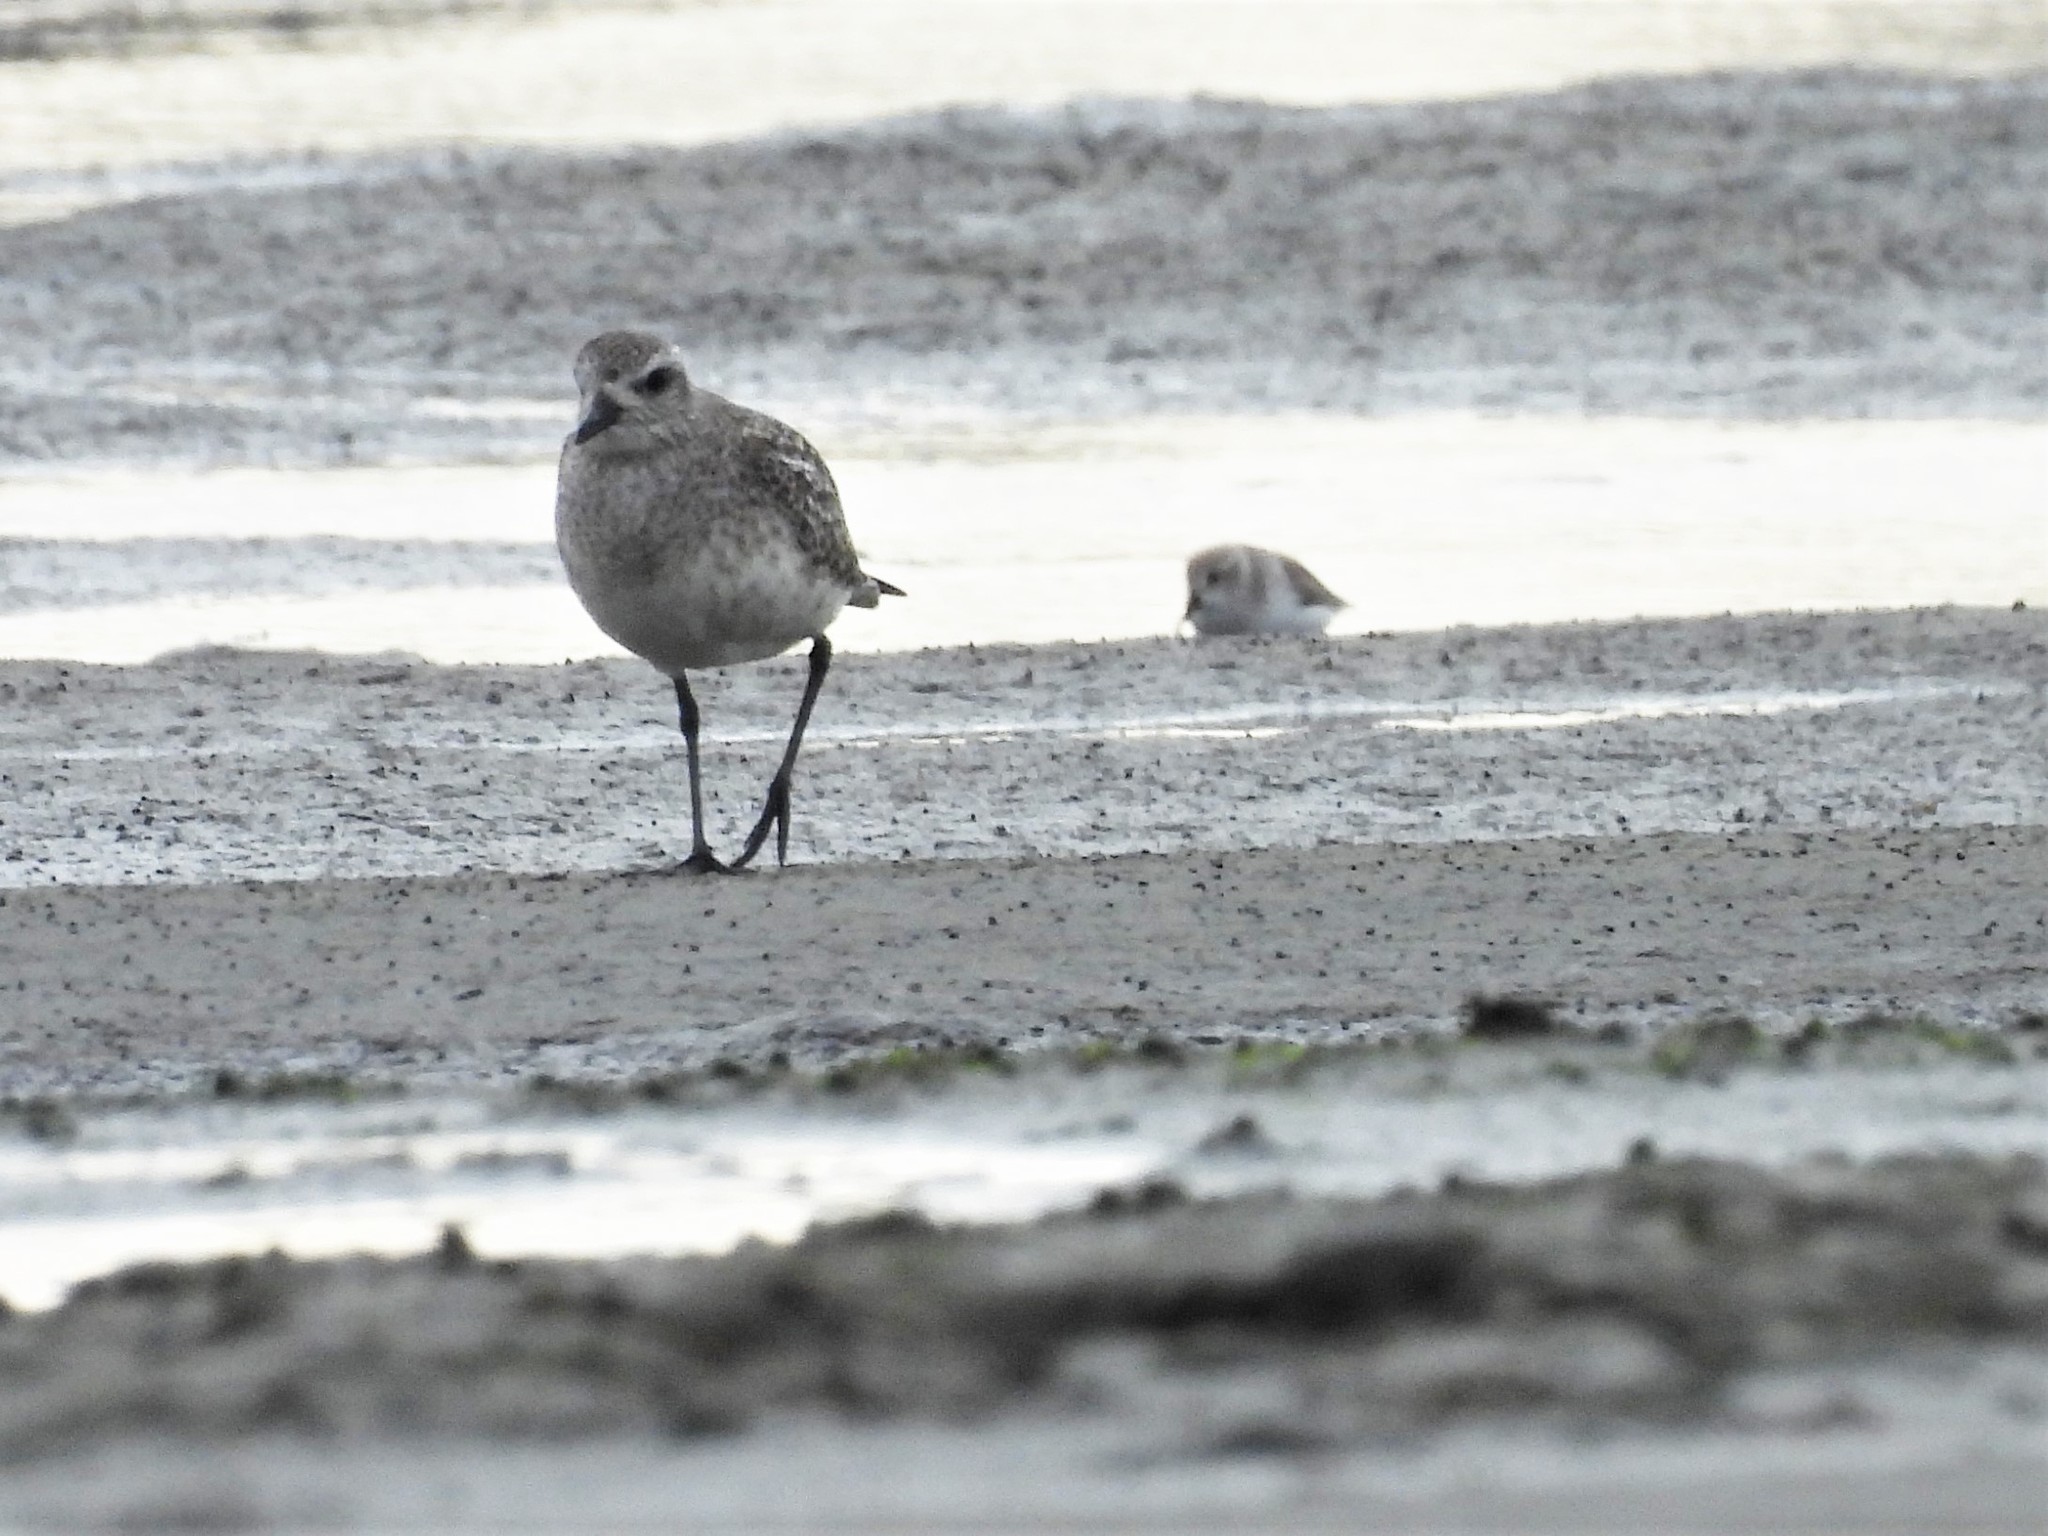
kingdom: Animalia
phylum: Chordata
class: Aves
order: Charadriiformes
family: Charadriidae
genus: Pluvialis
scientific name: Pluvialis squatarola
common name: Grey plover
